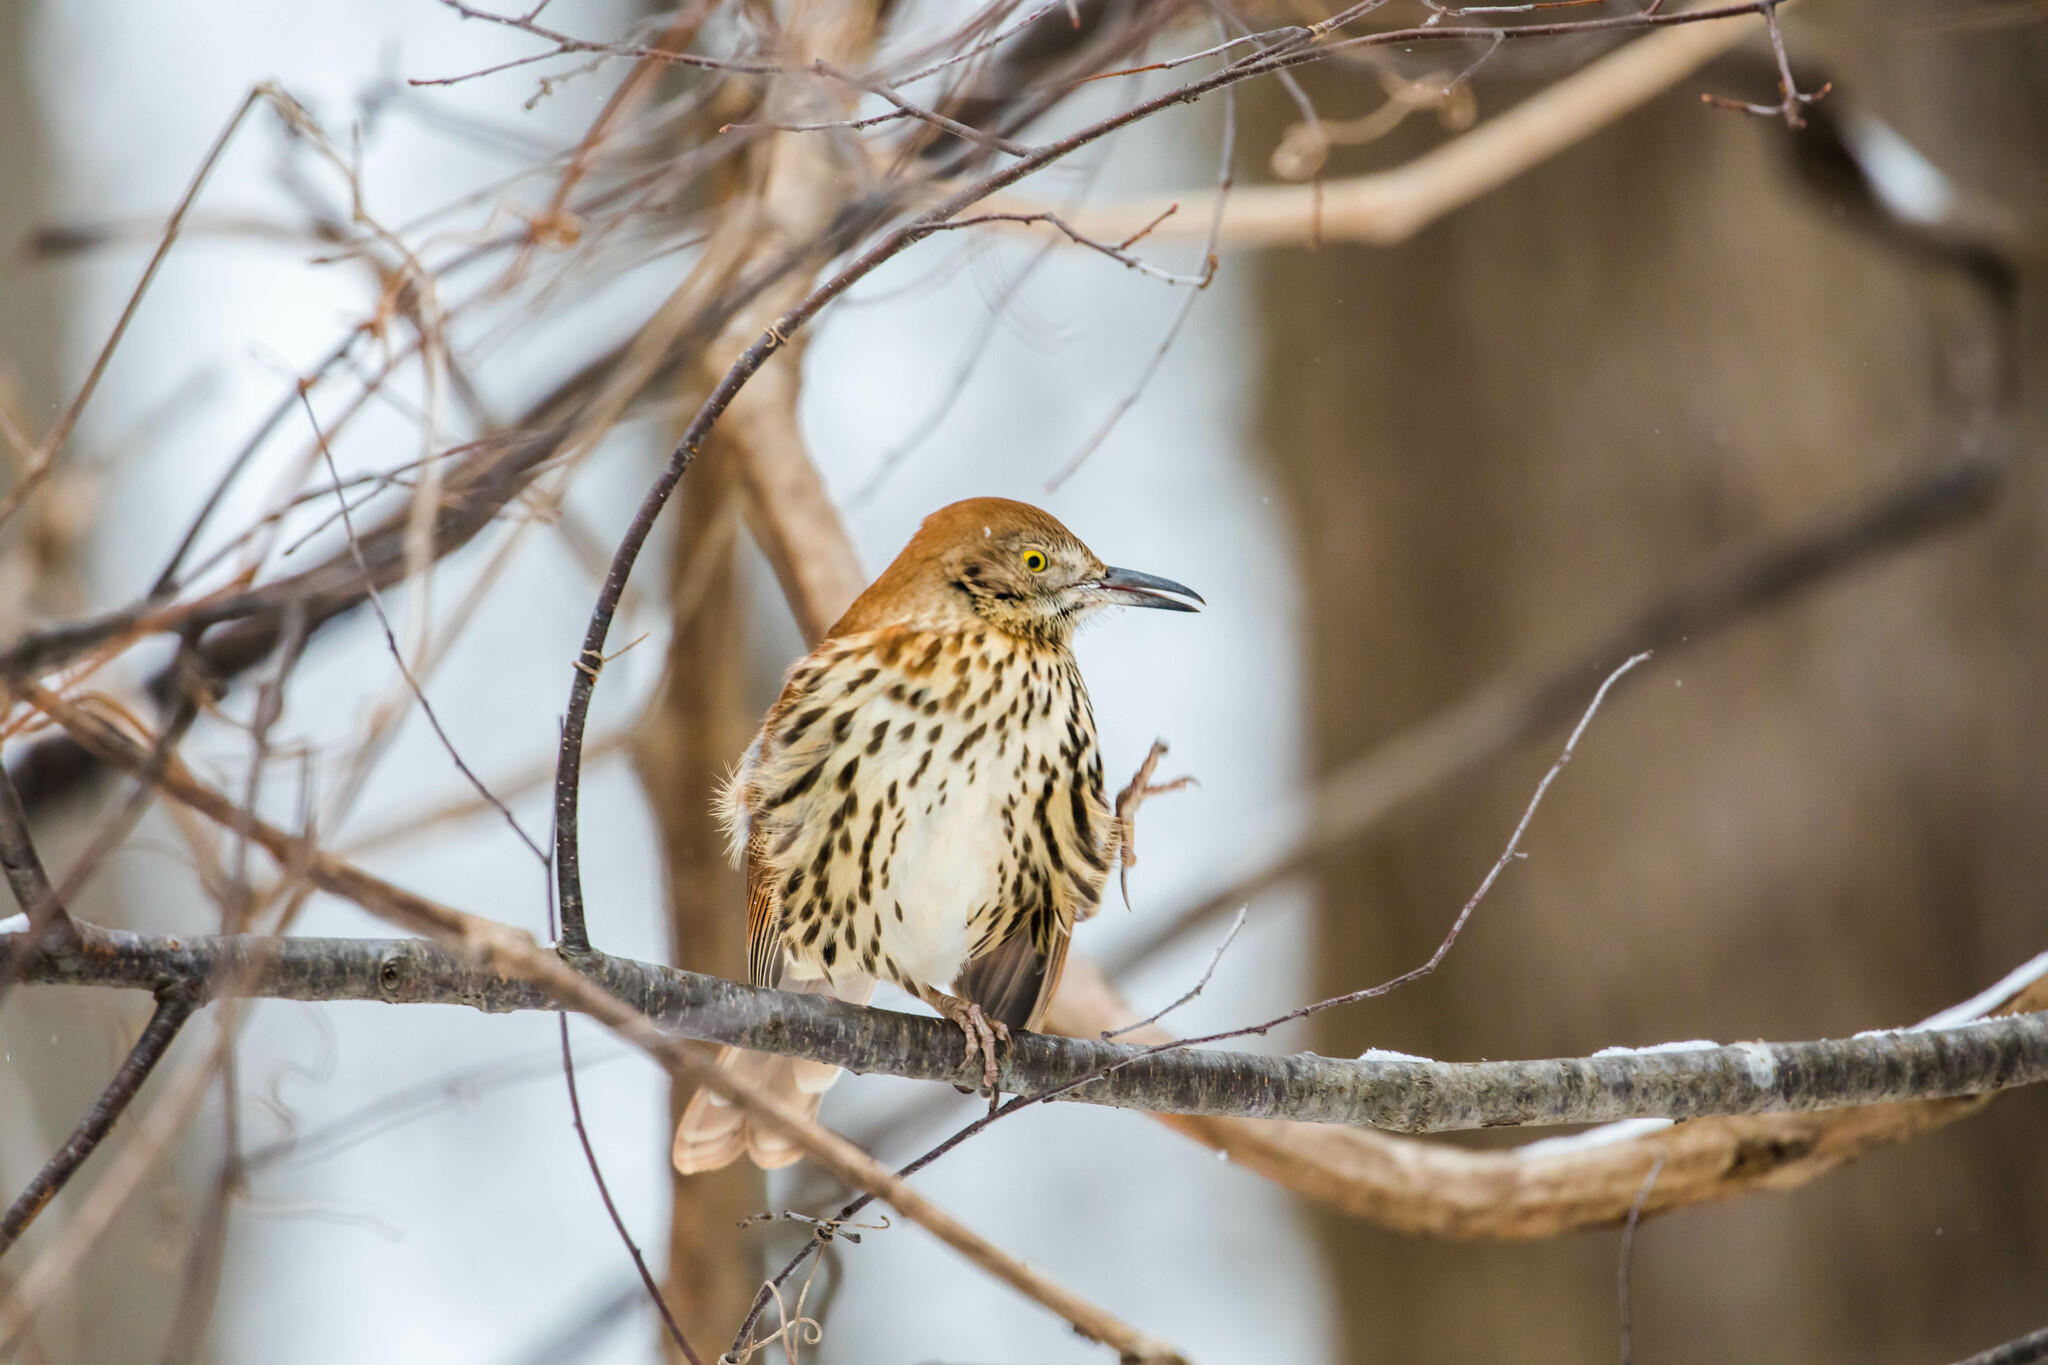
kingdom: Animalia
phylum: Chordata
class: Aves
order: Passeriformes
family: Mimidae
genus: Toxostoma
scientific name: Toxostoma rufum
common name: Brown thrasher
